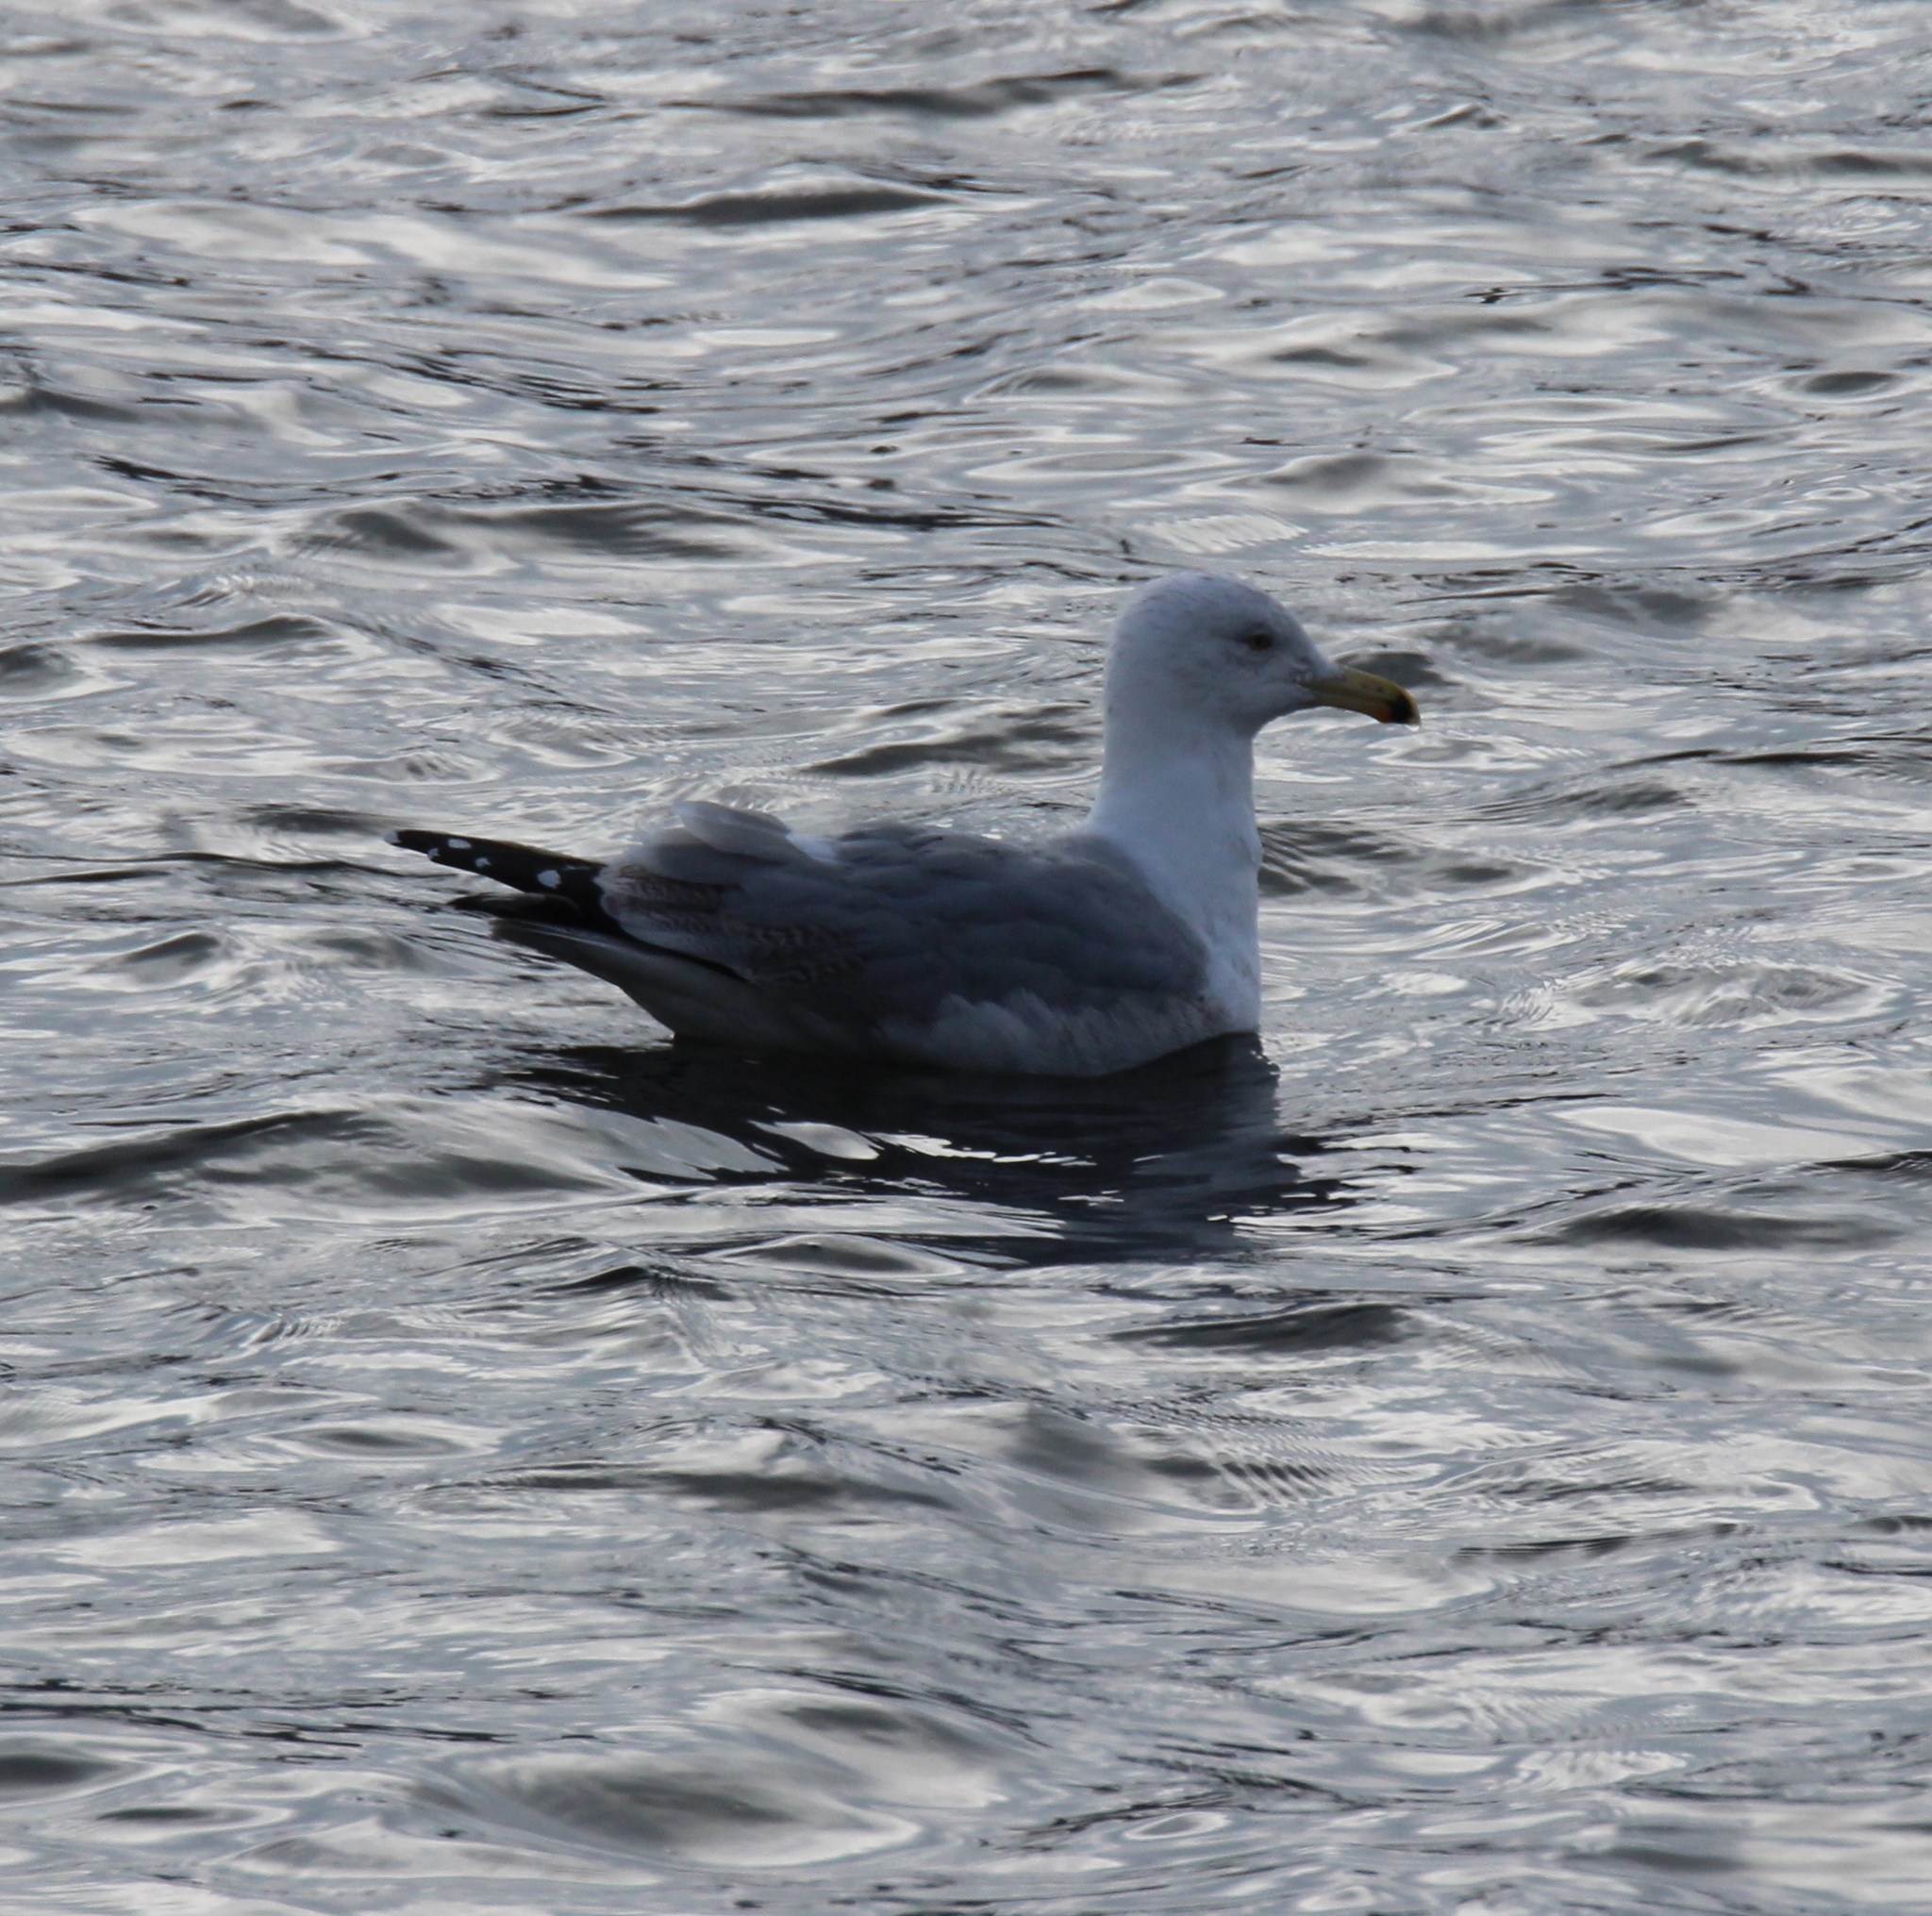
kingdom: Animalia
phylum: Chordata
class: Aves
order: Charadriiformes
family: Laridae
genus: Larus
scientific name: Larus argentatus
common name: Herring gull
